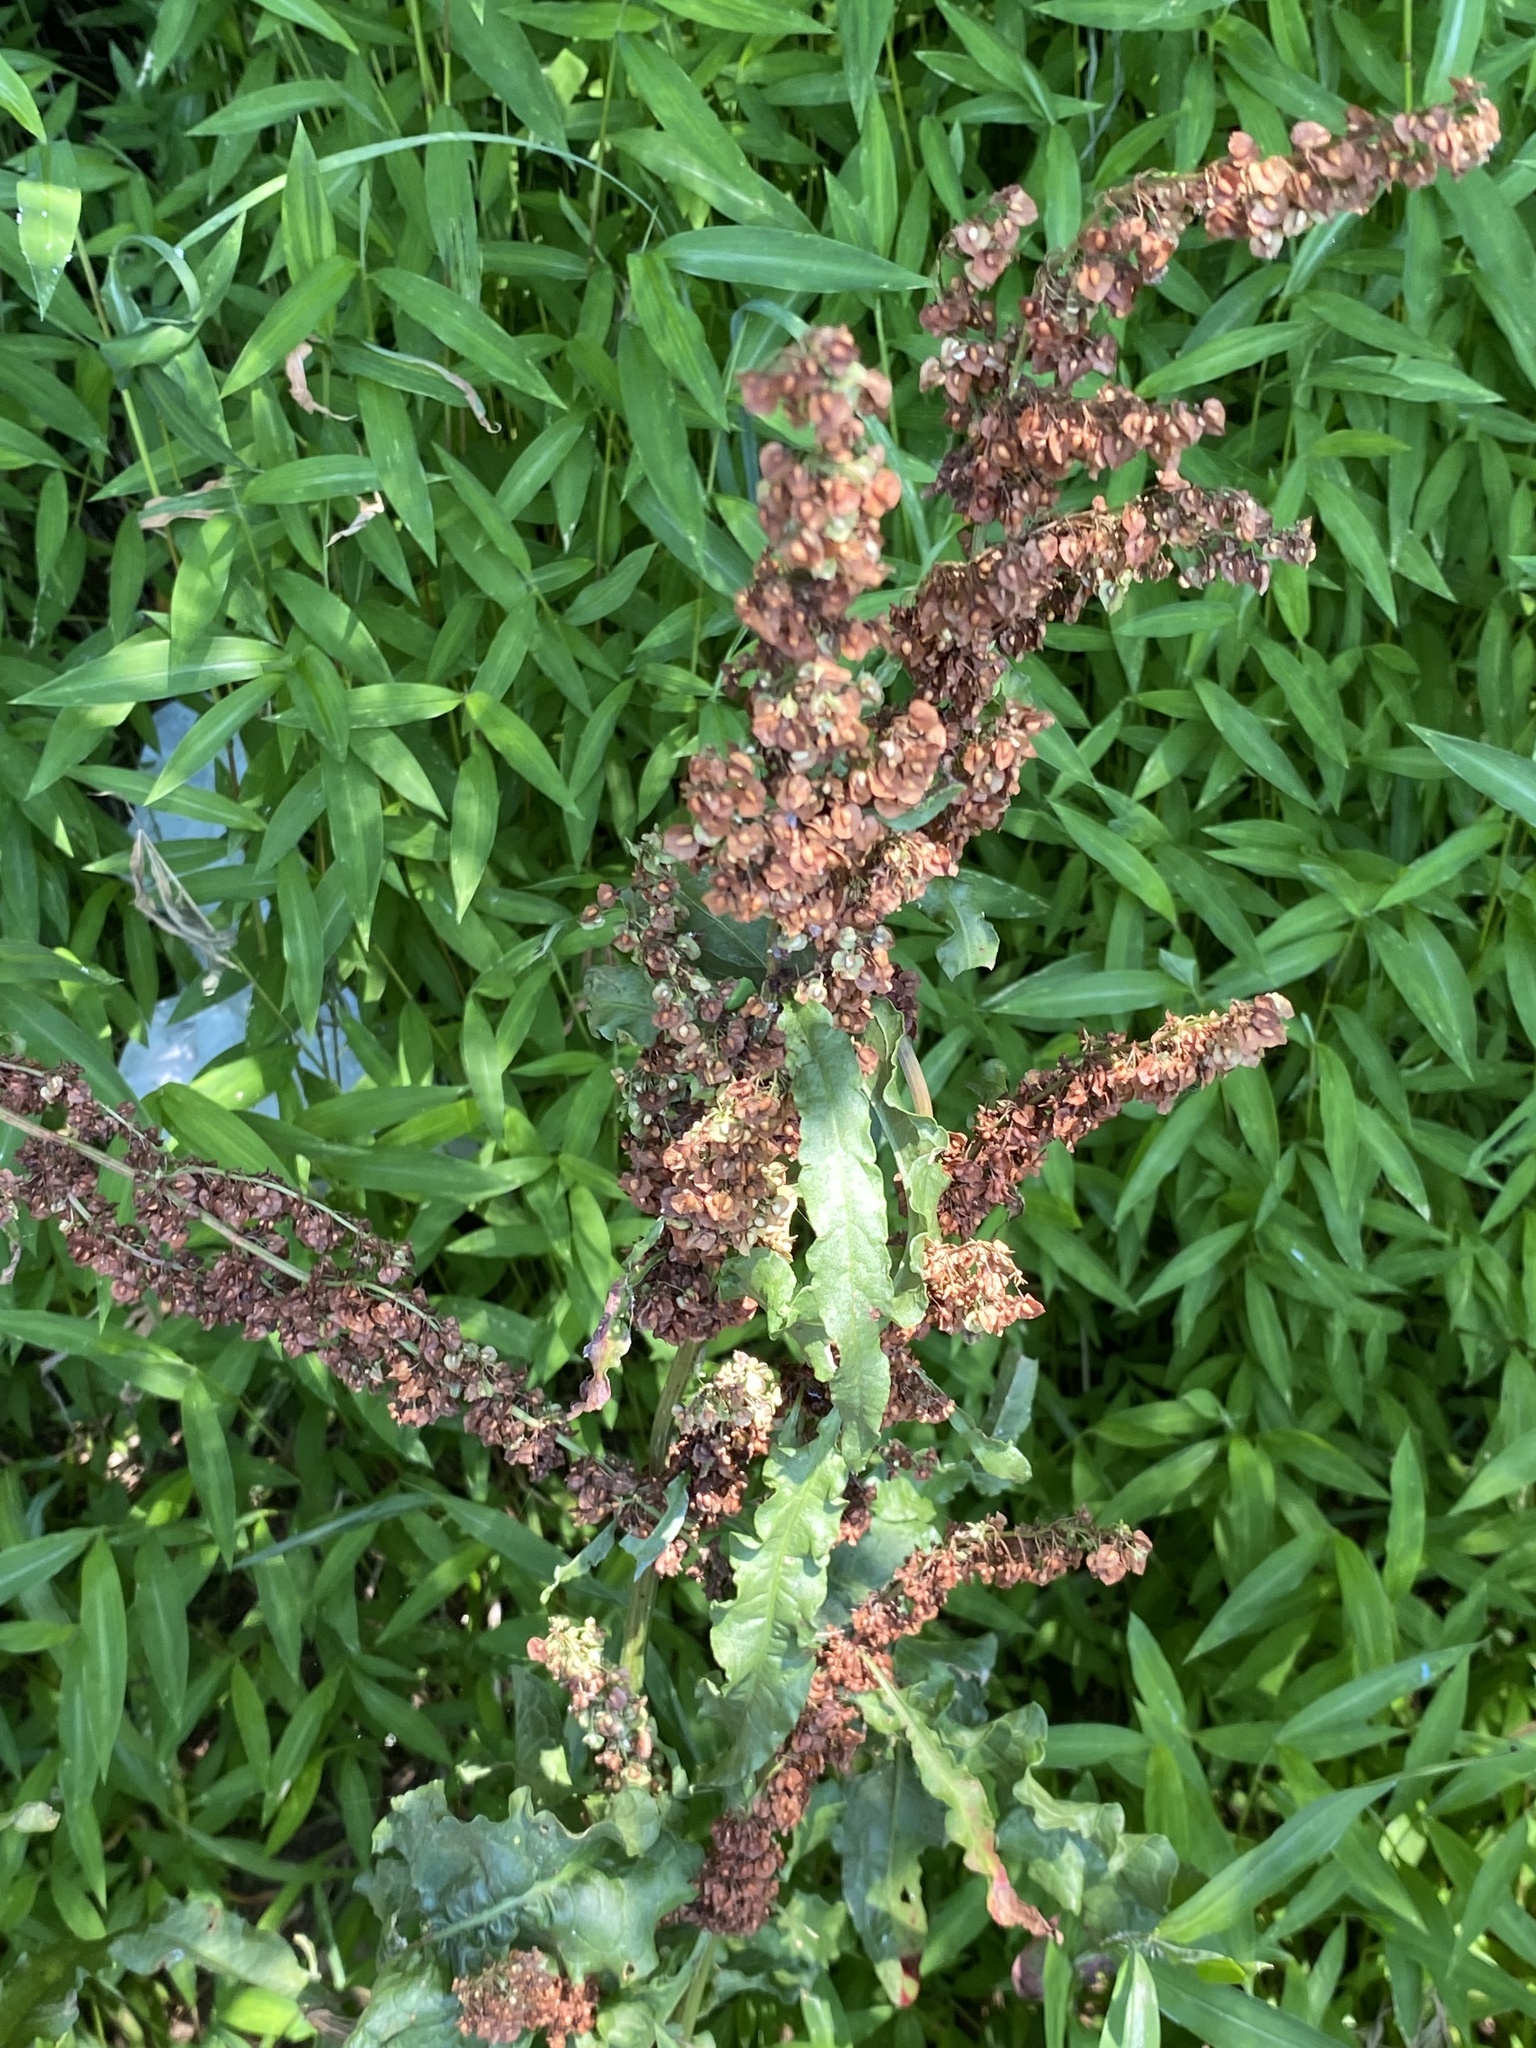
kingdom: Plantae
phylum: Tracheophyta
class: Magnoliopsida
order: Caryophyllales
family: Polygonaceae
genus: Rumex
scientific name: Rumex crispus
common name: Curled dock
